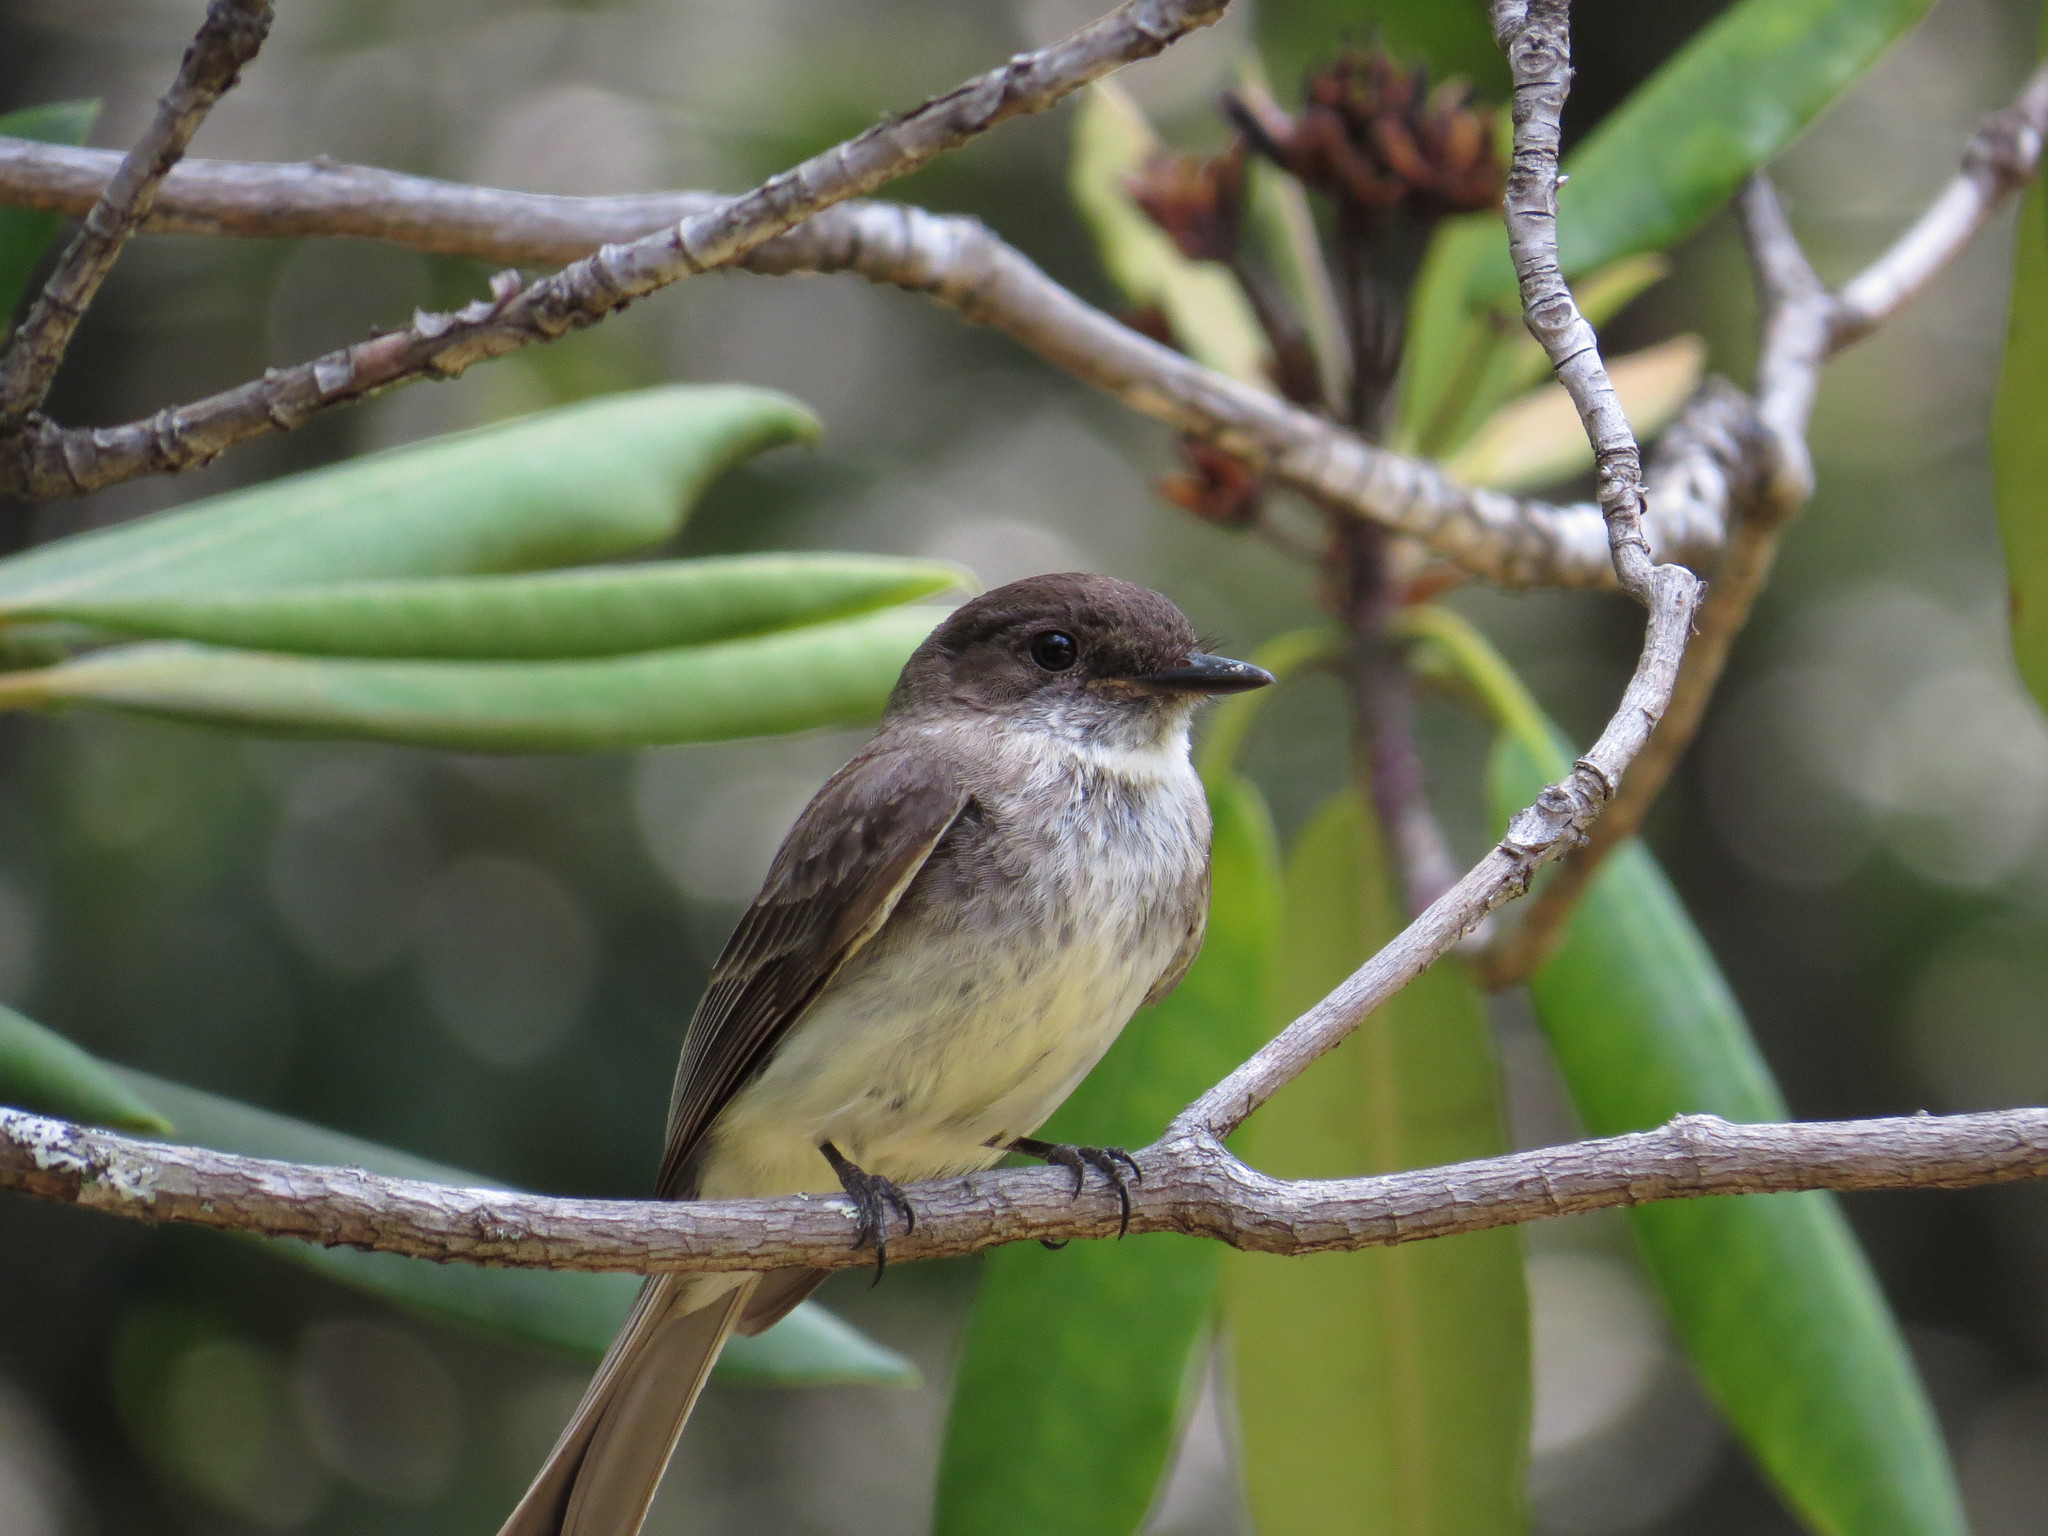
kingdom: Animalia
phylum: Chordata
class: Aves
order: Passeriformes
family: Tyrannidae
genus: Sayornis
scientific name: Sayornis phoebe
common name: Eastern phoebe
